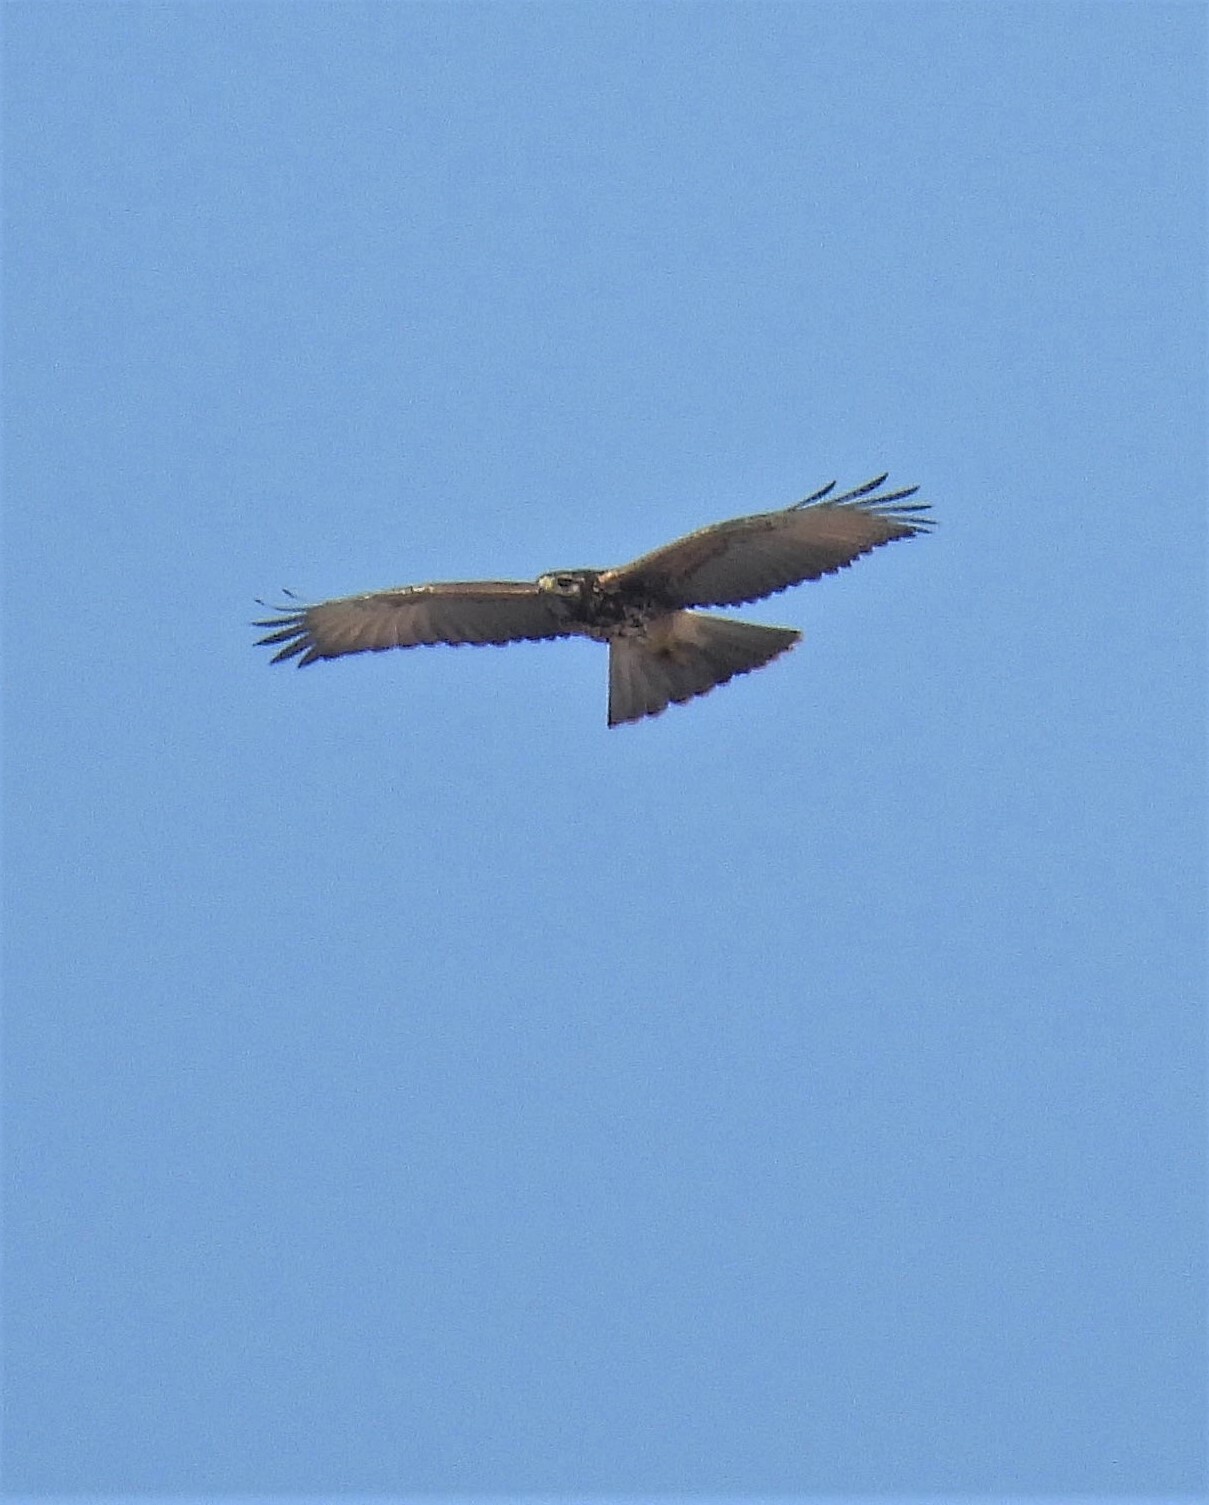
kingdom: Animalia
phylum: Chordata
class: Aves
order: Accipitriformes
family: Accipitridae
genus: Parabuteo
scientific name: Parabuteo unicinctus
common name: Harris's hawk
